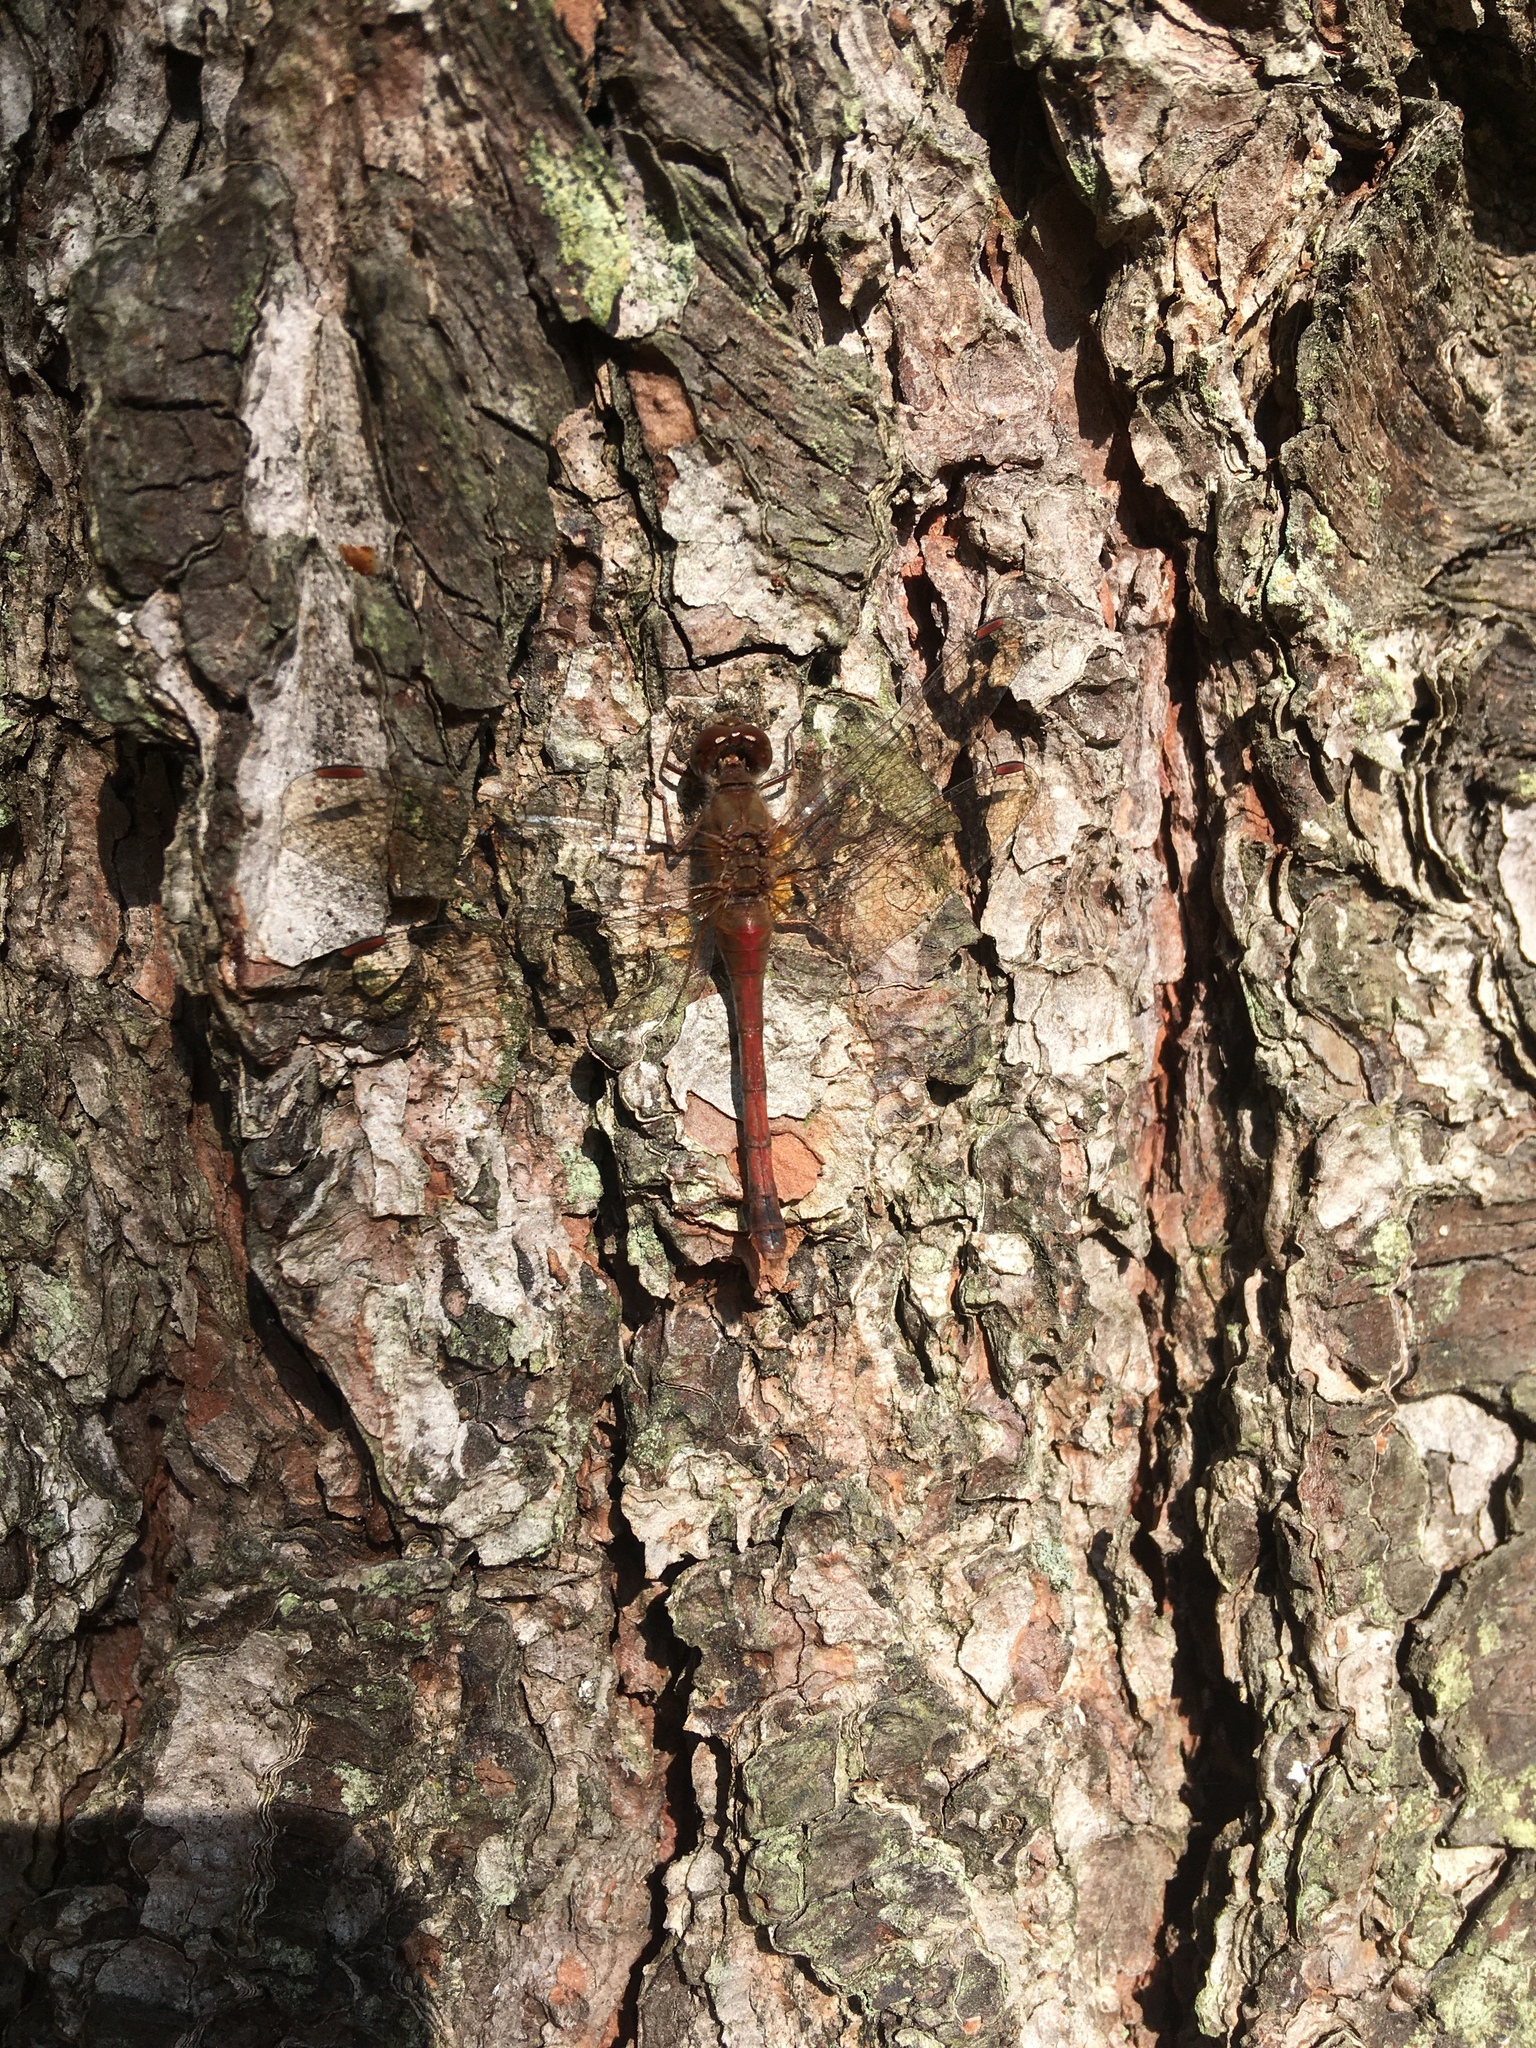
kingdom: Animalia
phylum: Arthropoda
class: Insecta
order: Odonata
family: Libellulidae
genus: Sympetrum
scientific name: Sympetrum vicinum
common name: Autumn meadowhawk
